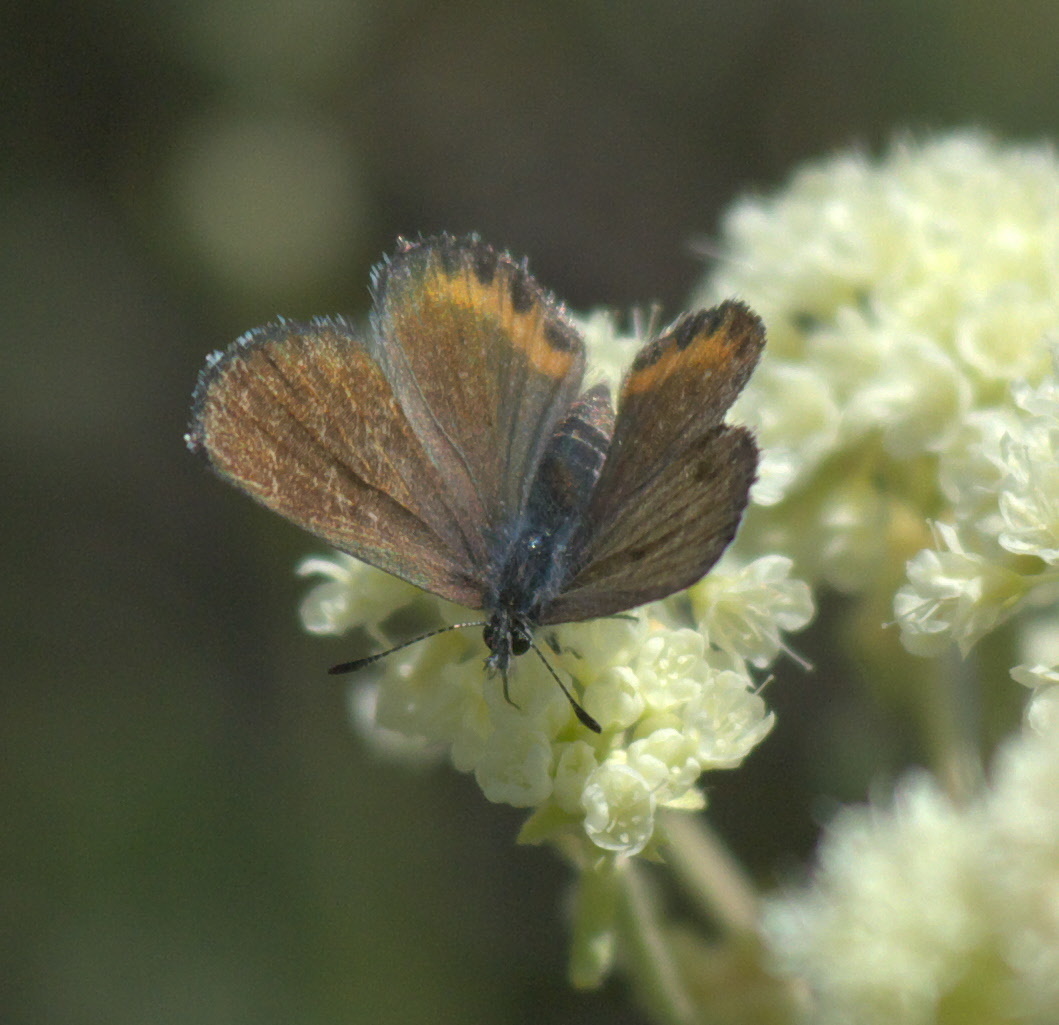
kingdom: Animalia
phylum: Arthropoda
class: Insecta
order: Lepidoptera
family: Lycaenidae
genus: Euphilotes
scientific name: Euphilotes enoptes
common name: Dotted blue
